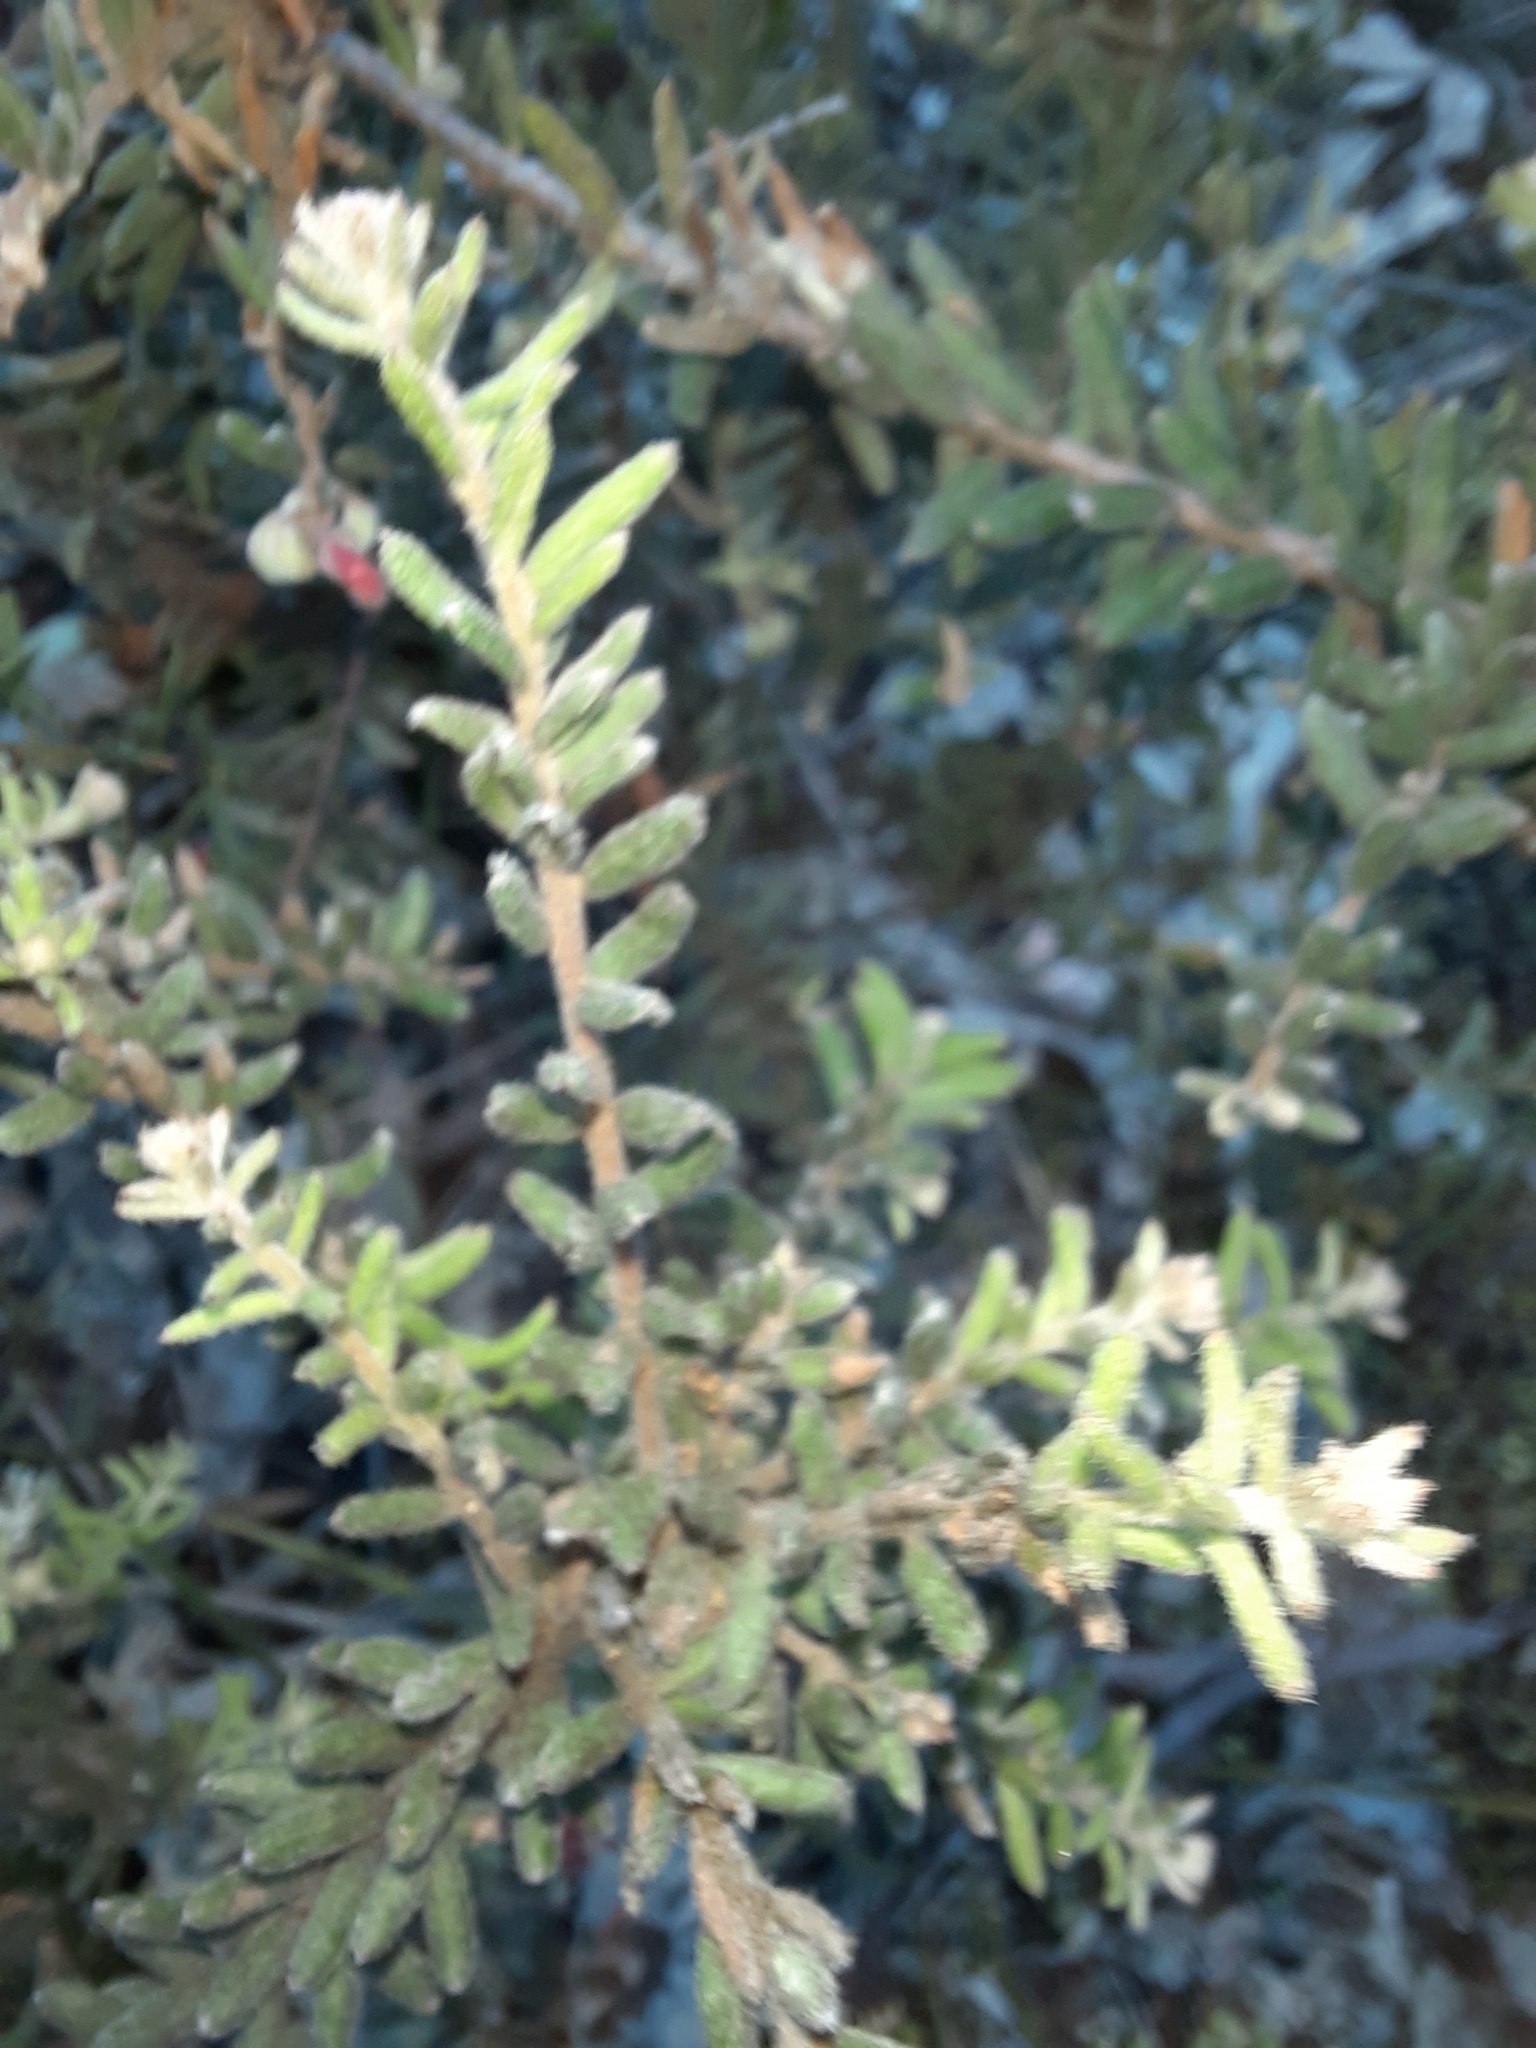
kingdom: Plantae
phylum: Tracheophyta
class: Magnoliopsida
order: Proteales
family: Proteaceae
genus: Grevillea
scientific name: Grevillea alpina
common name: Catclaws grevillea
